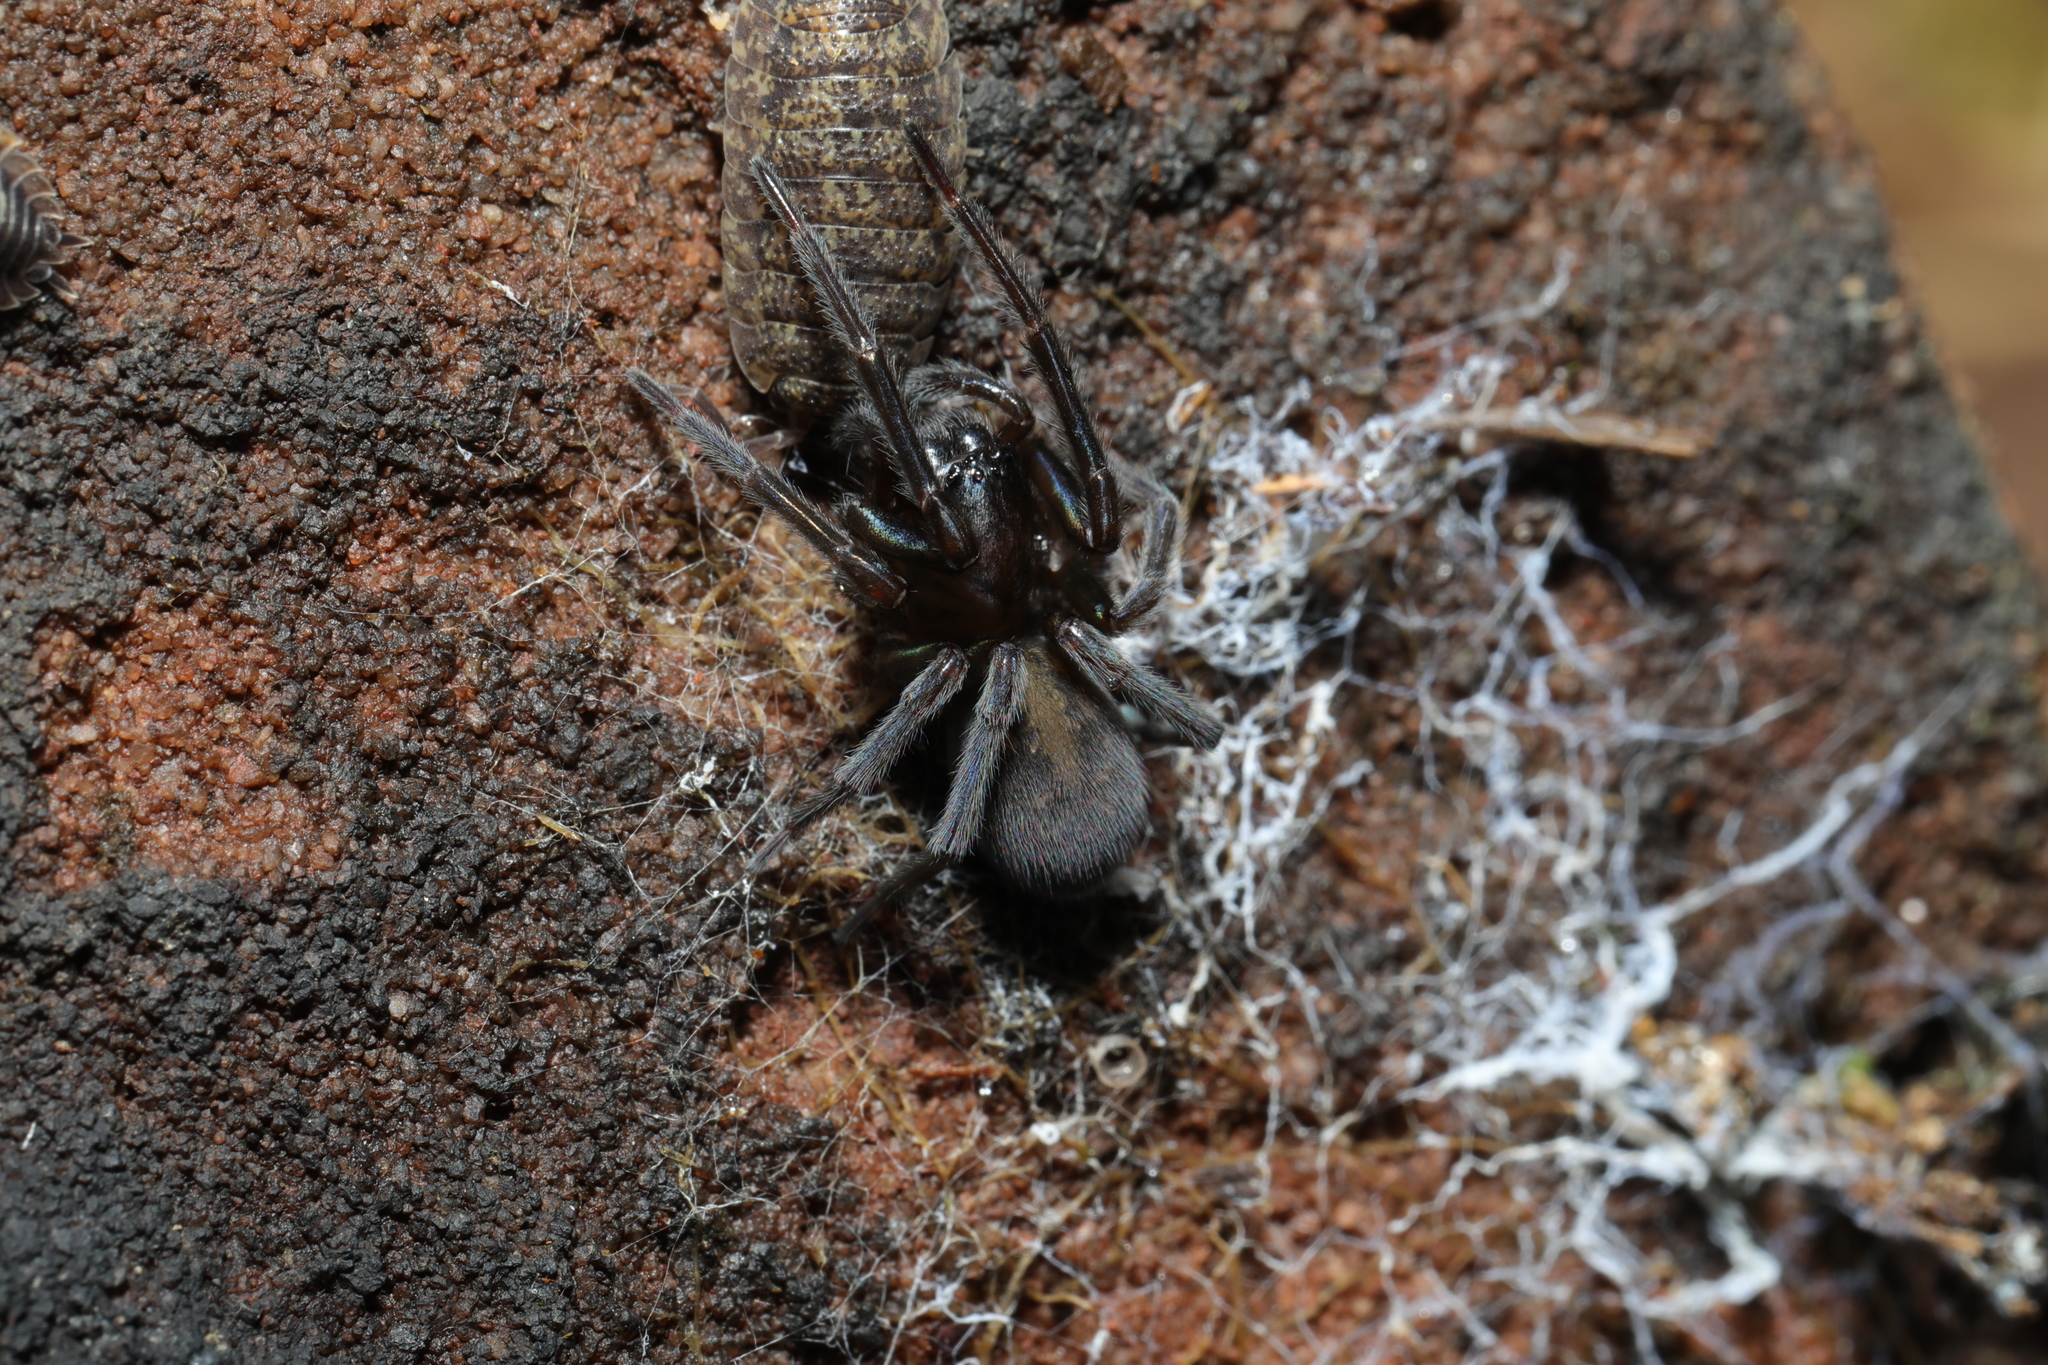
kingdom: Animalia
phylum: Arthropoda
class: Arachnida
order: Araneae
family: Amaurobiidae
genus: Amaurobius
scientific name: Amaurobius ferox
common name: Black laceweaver
